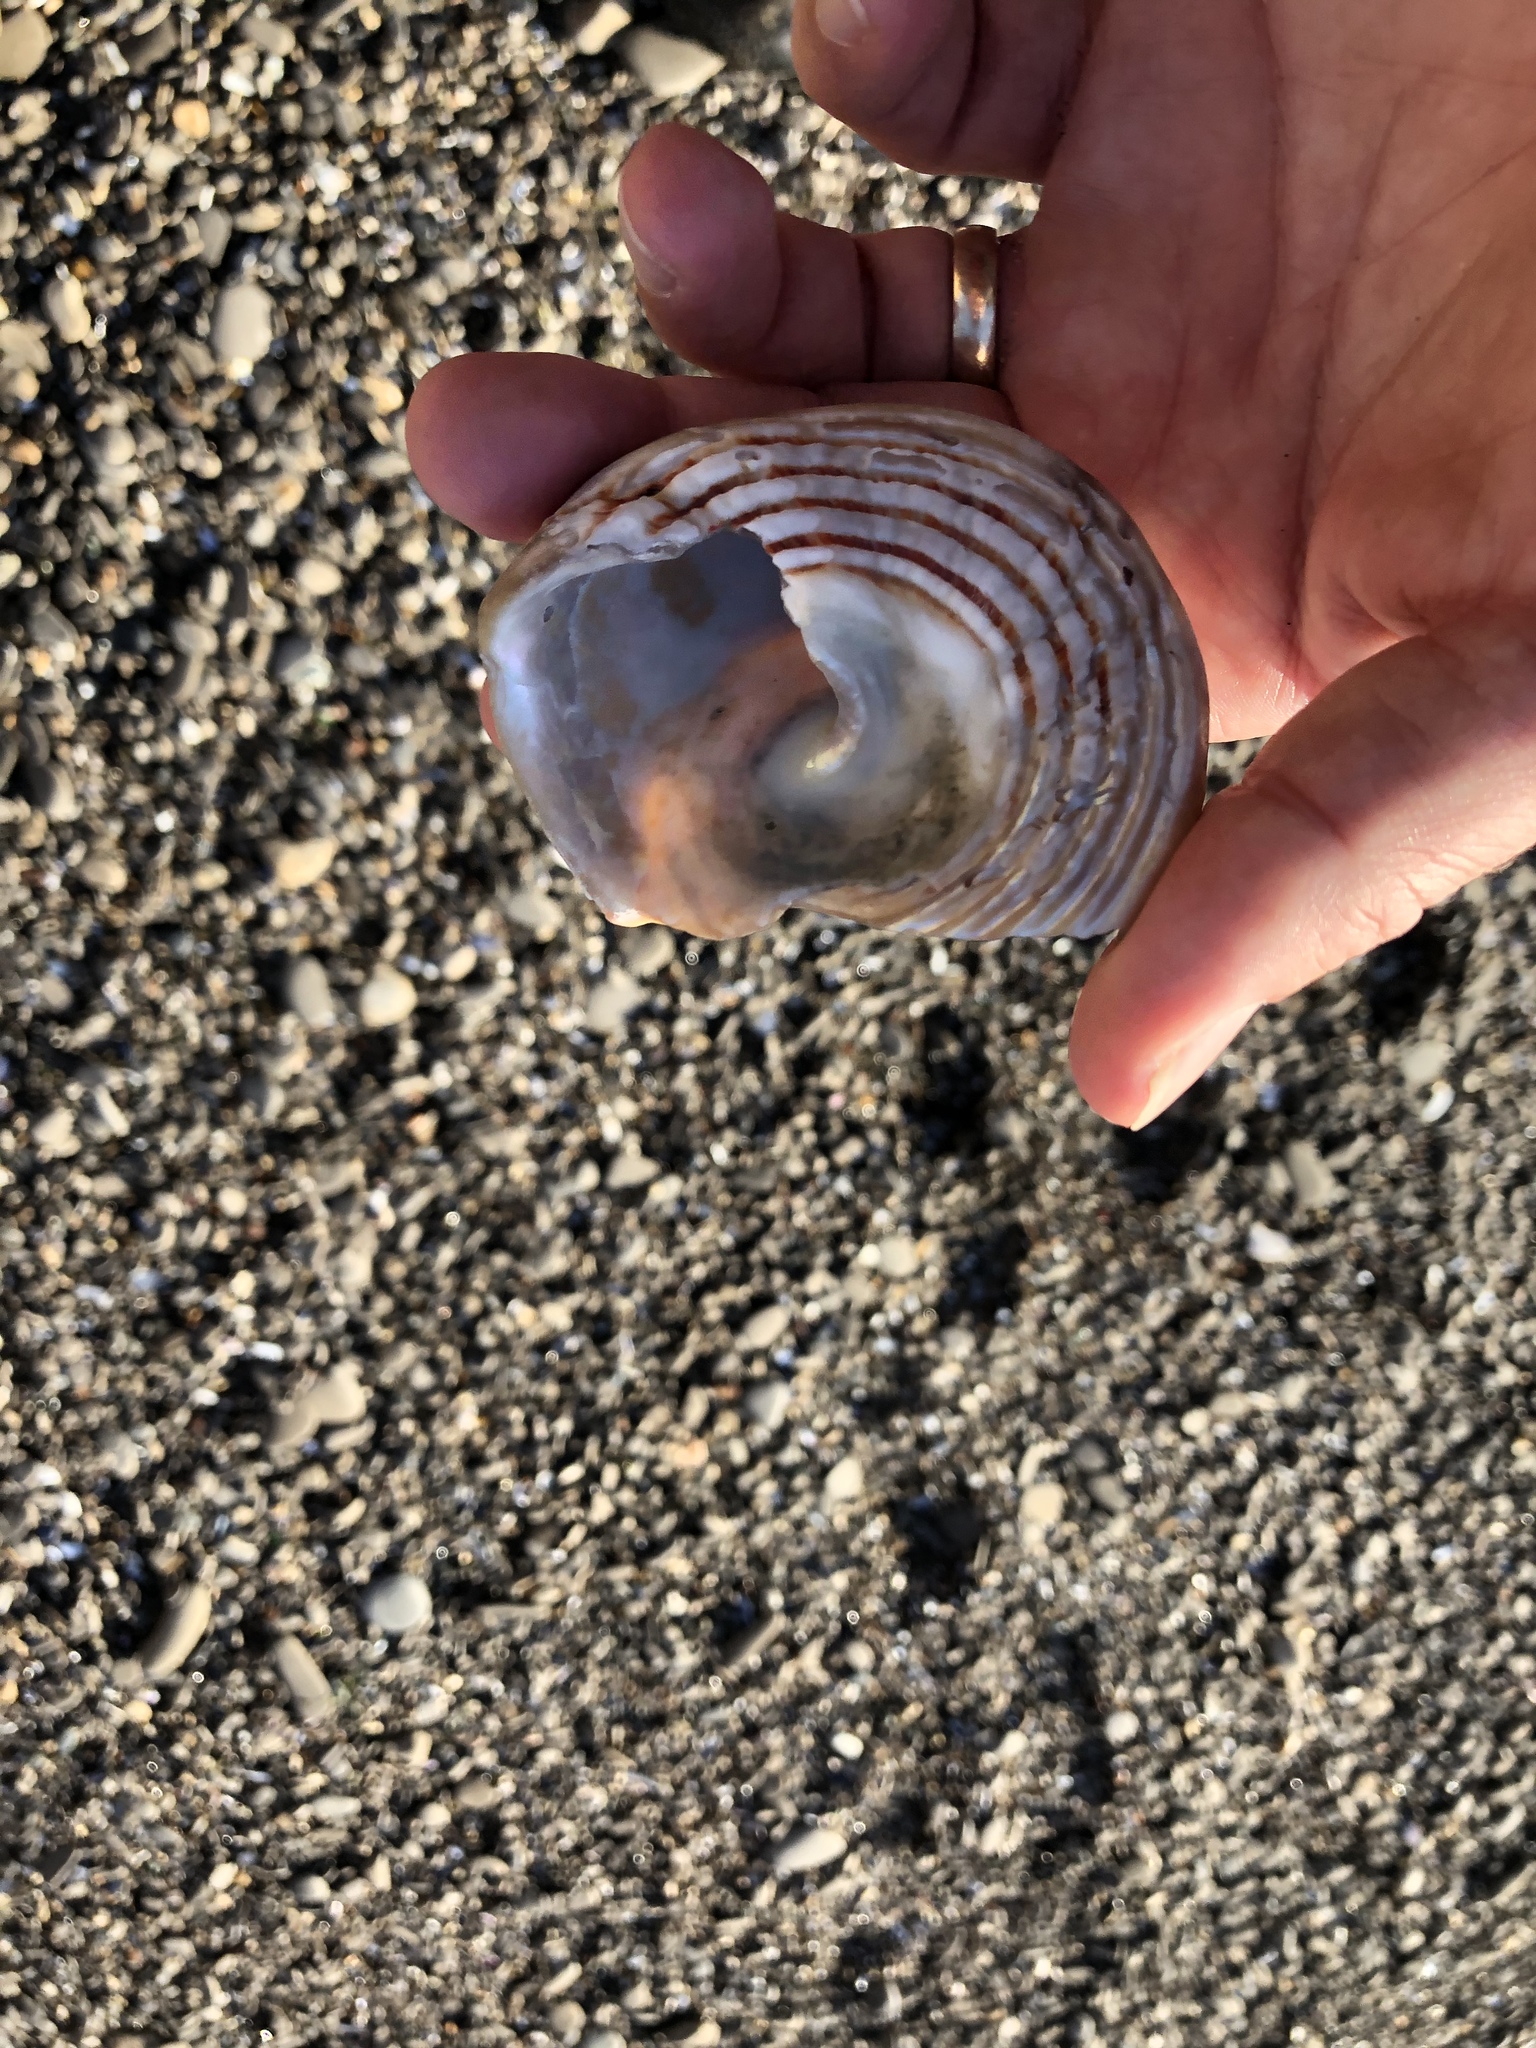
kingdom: Animalia
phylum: Mollusca
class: Gastropoda
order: Trochida
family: Turbinidae
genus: Pomaulax
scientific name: Pomaulax gibberosus
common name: Red turban
